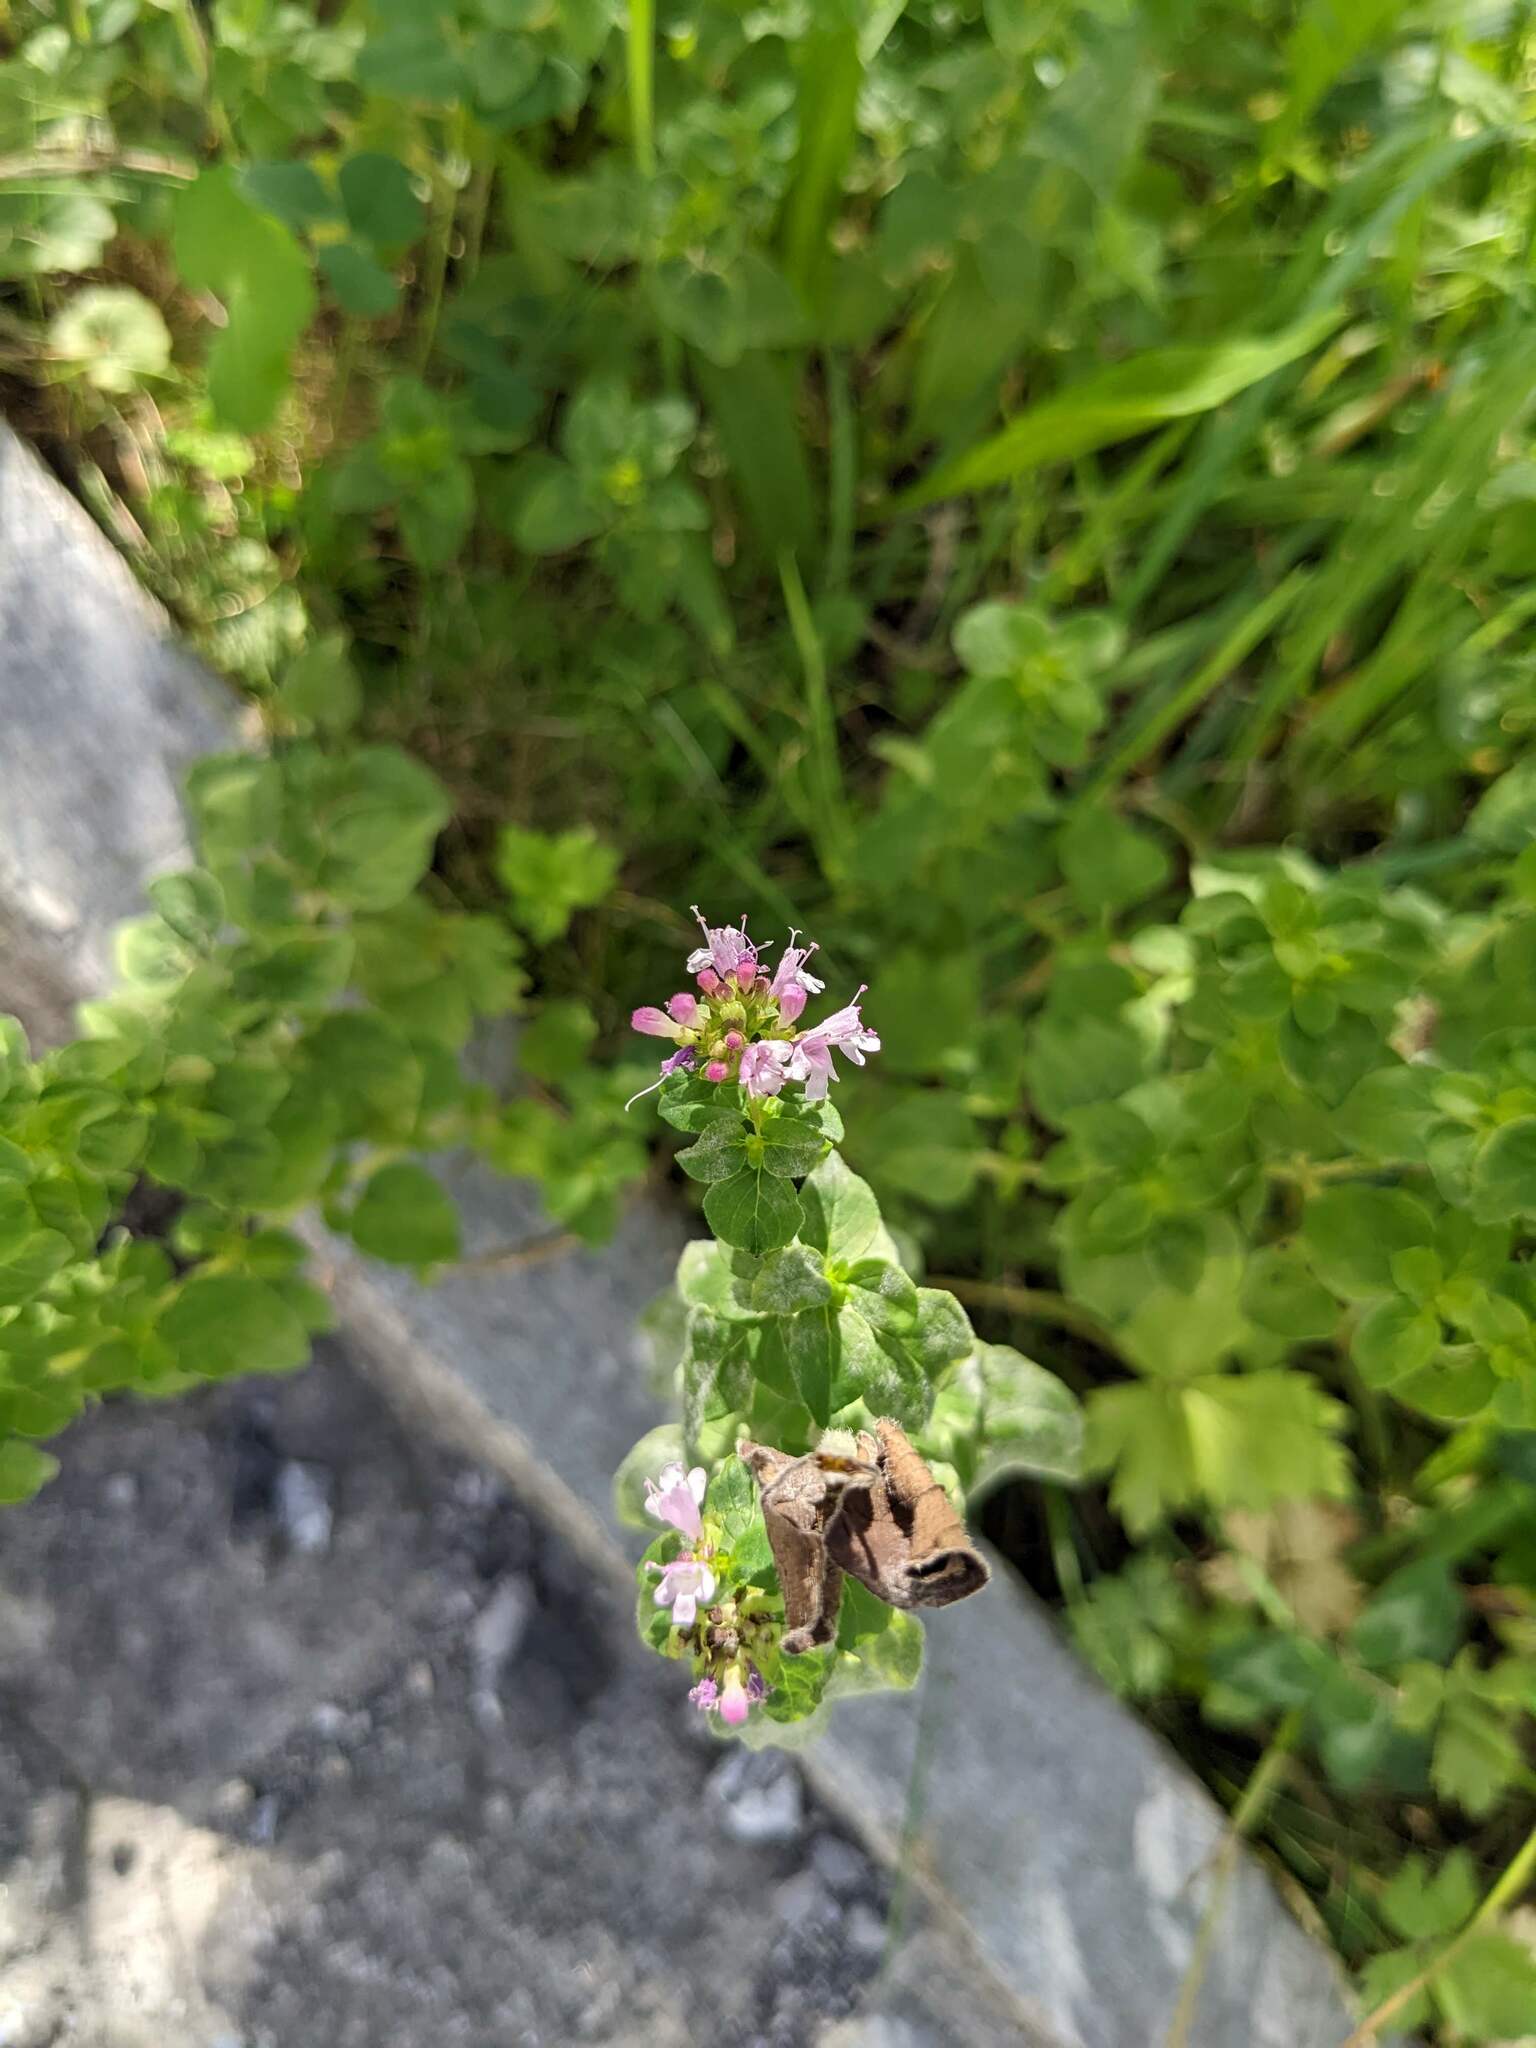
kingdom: Plantae
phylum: Tracheophyta
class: Magnoliopsida
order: Lamiales
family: Lamiaceae
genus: Origanum
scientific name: Origanum vulgare
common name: Wild marjoram
